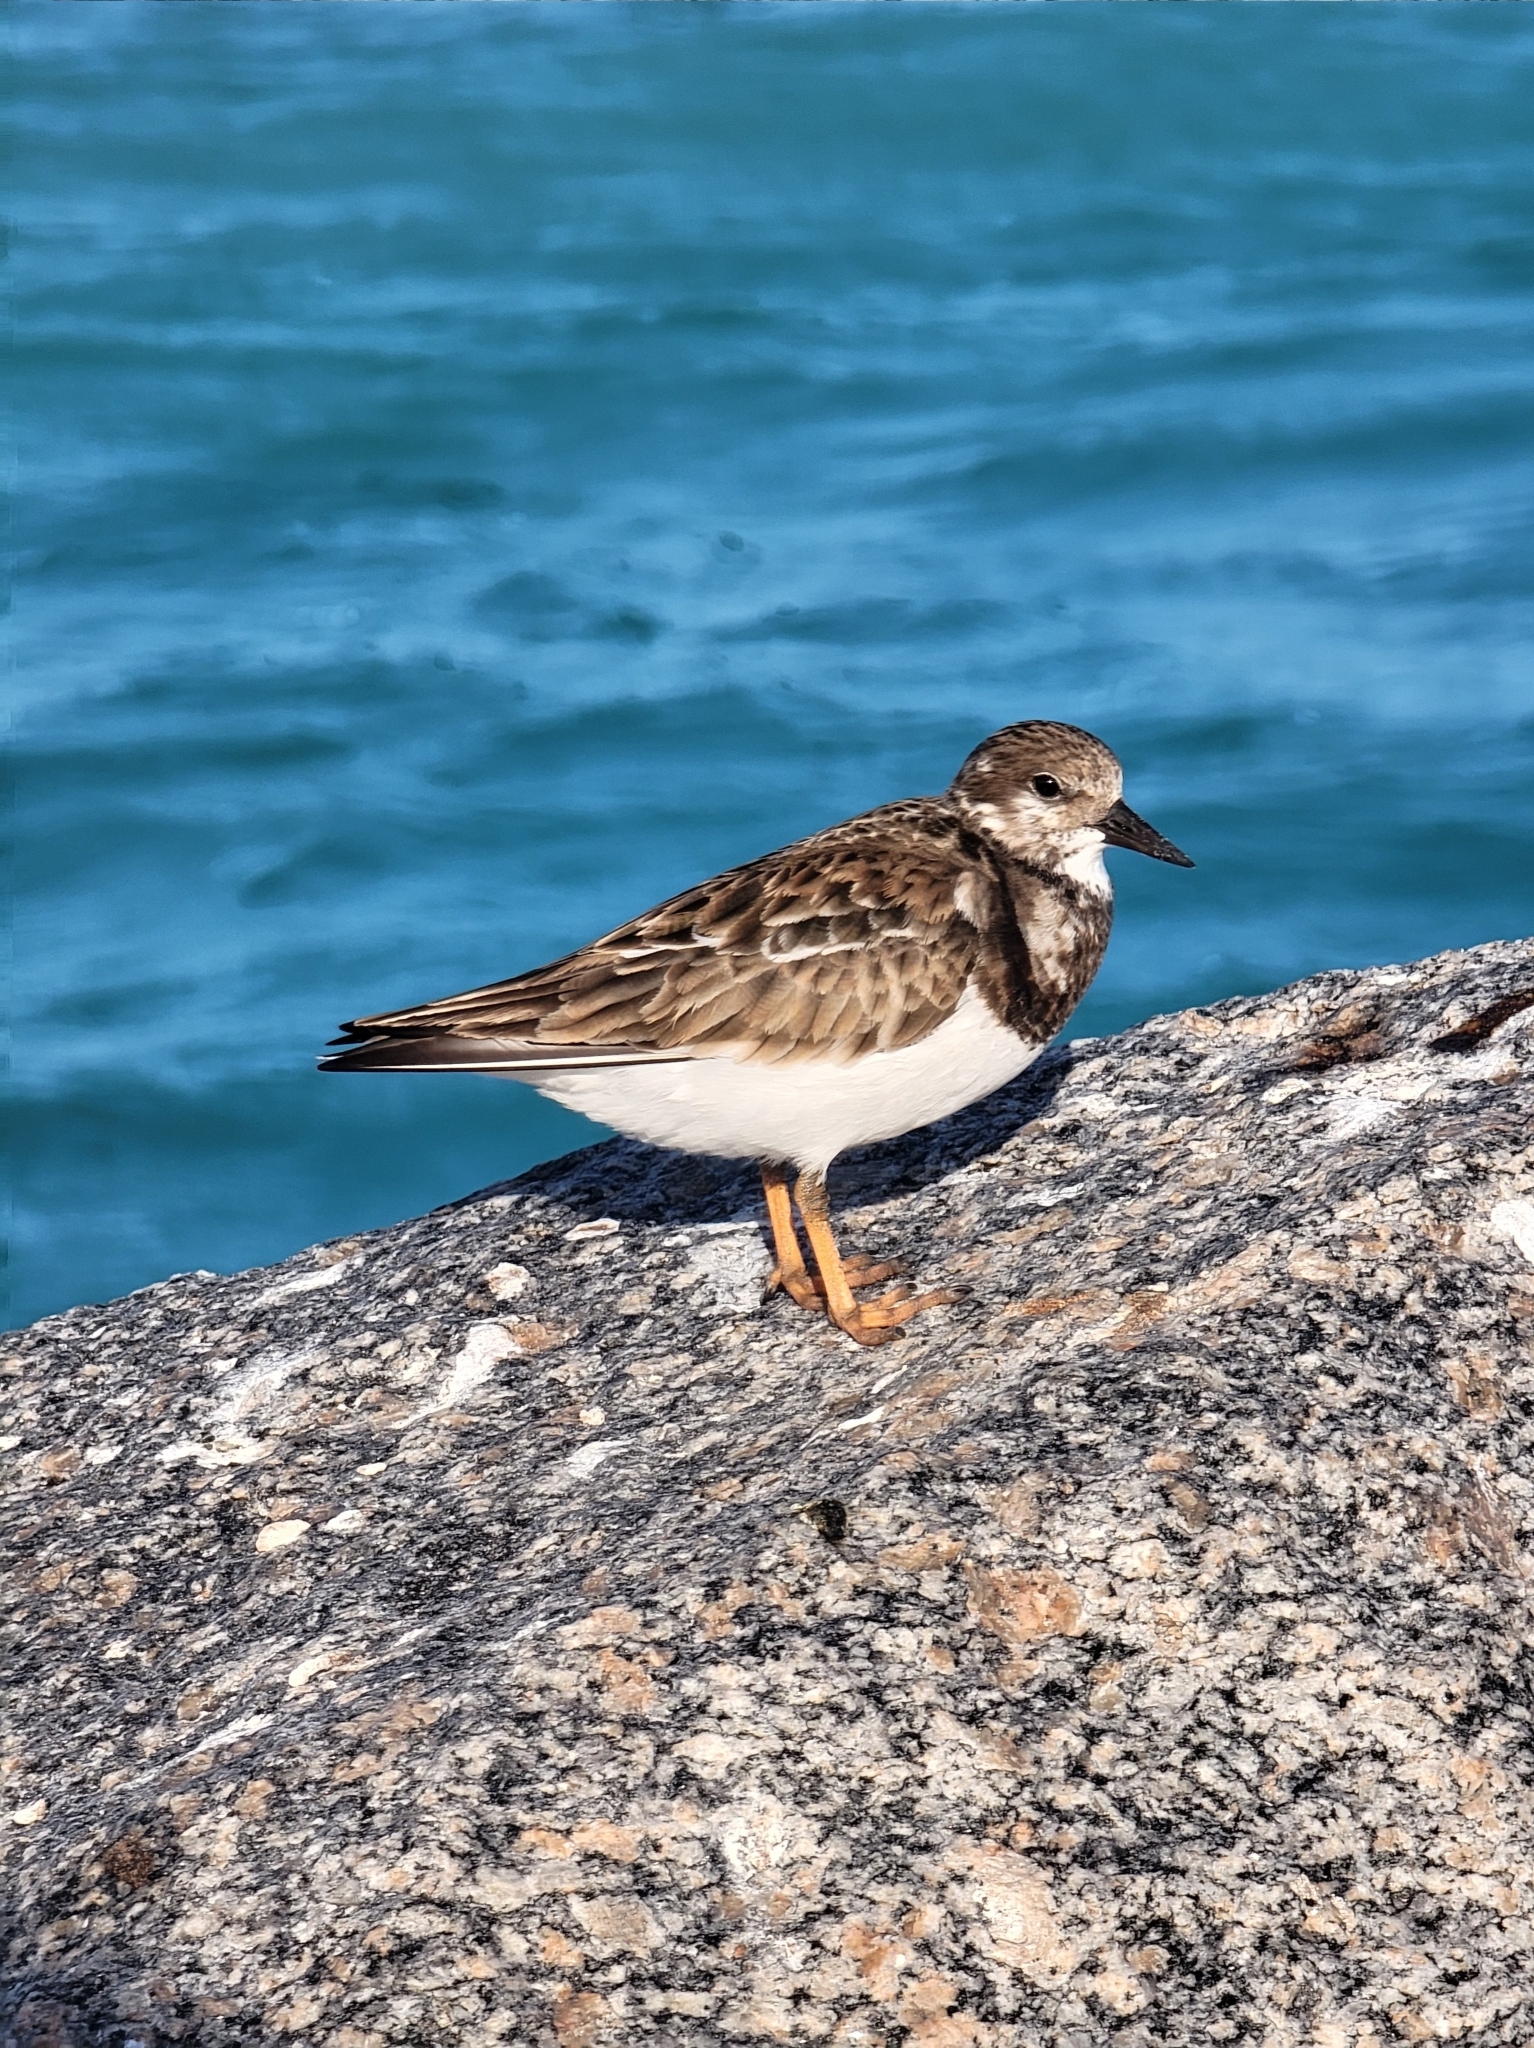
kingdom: Animalia
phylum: Chordata
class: Aves
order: Charadriiformes
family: Scolopacidae
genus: Arenaria
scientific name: Arenaria interpres
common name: Ruddy turnstone
